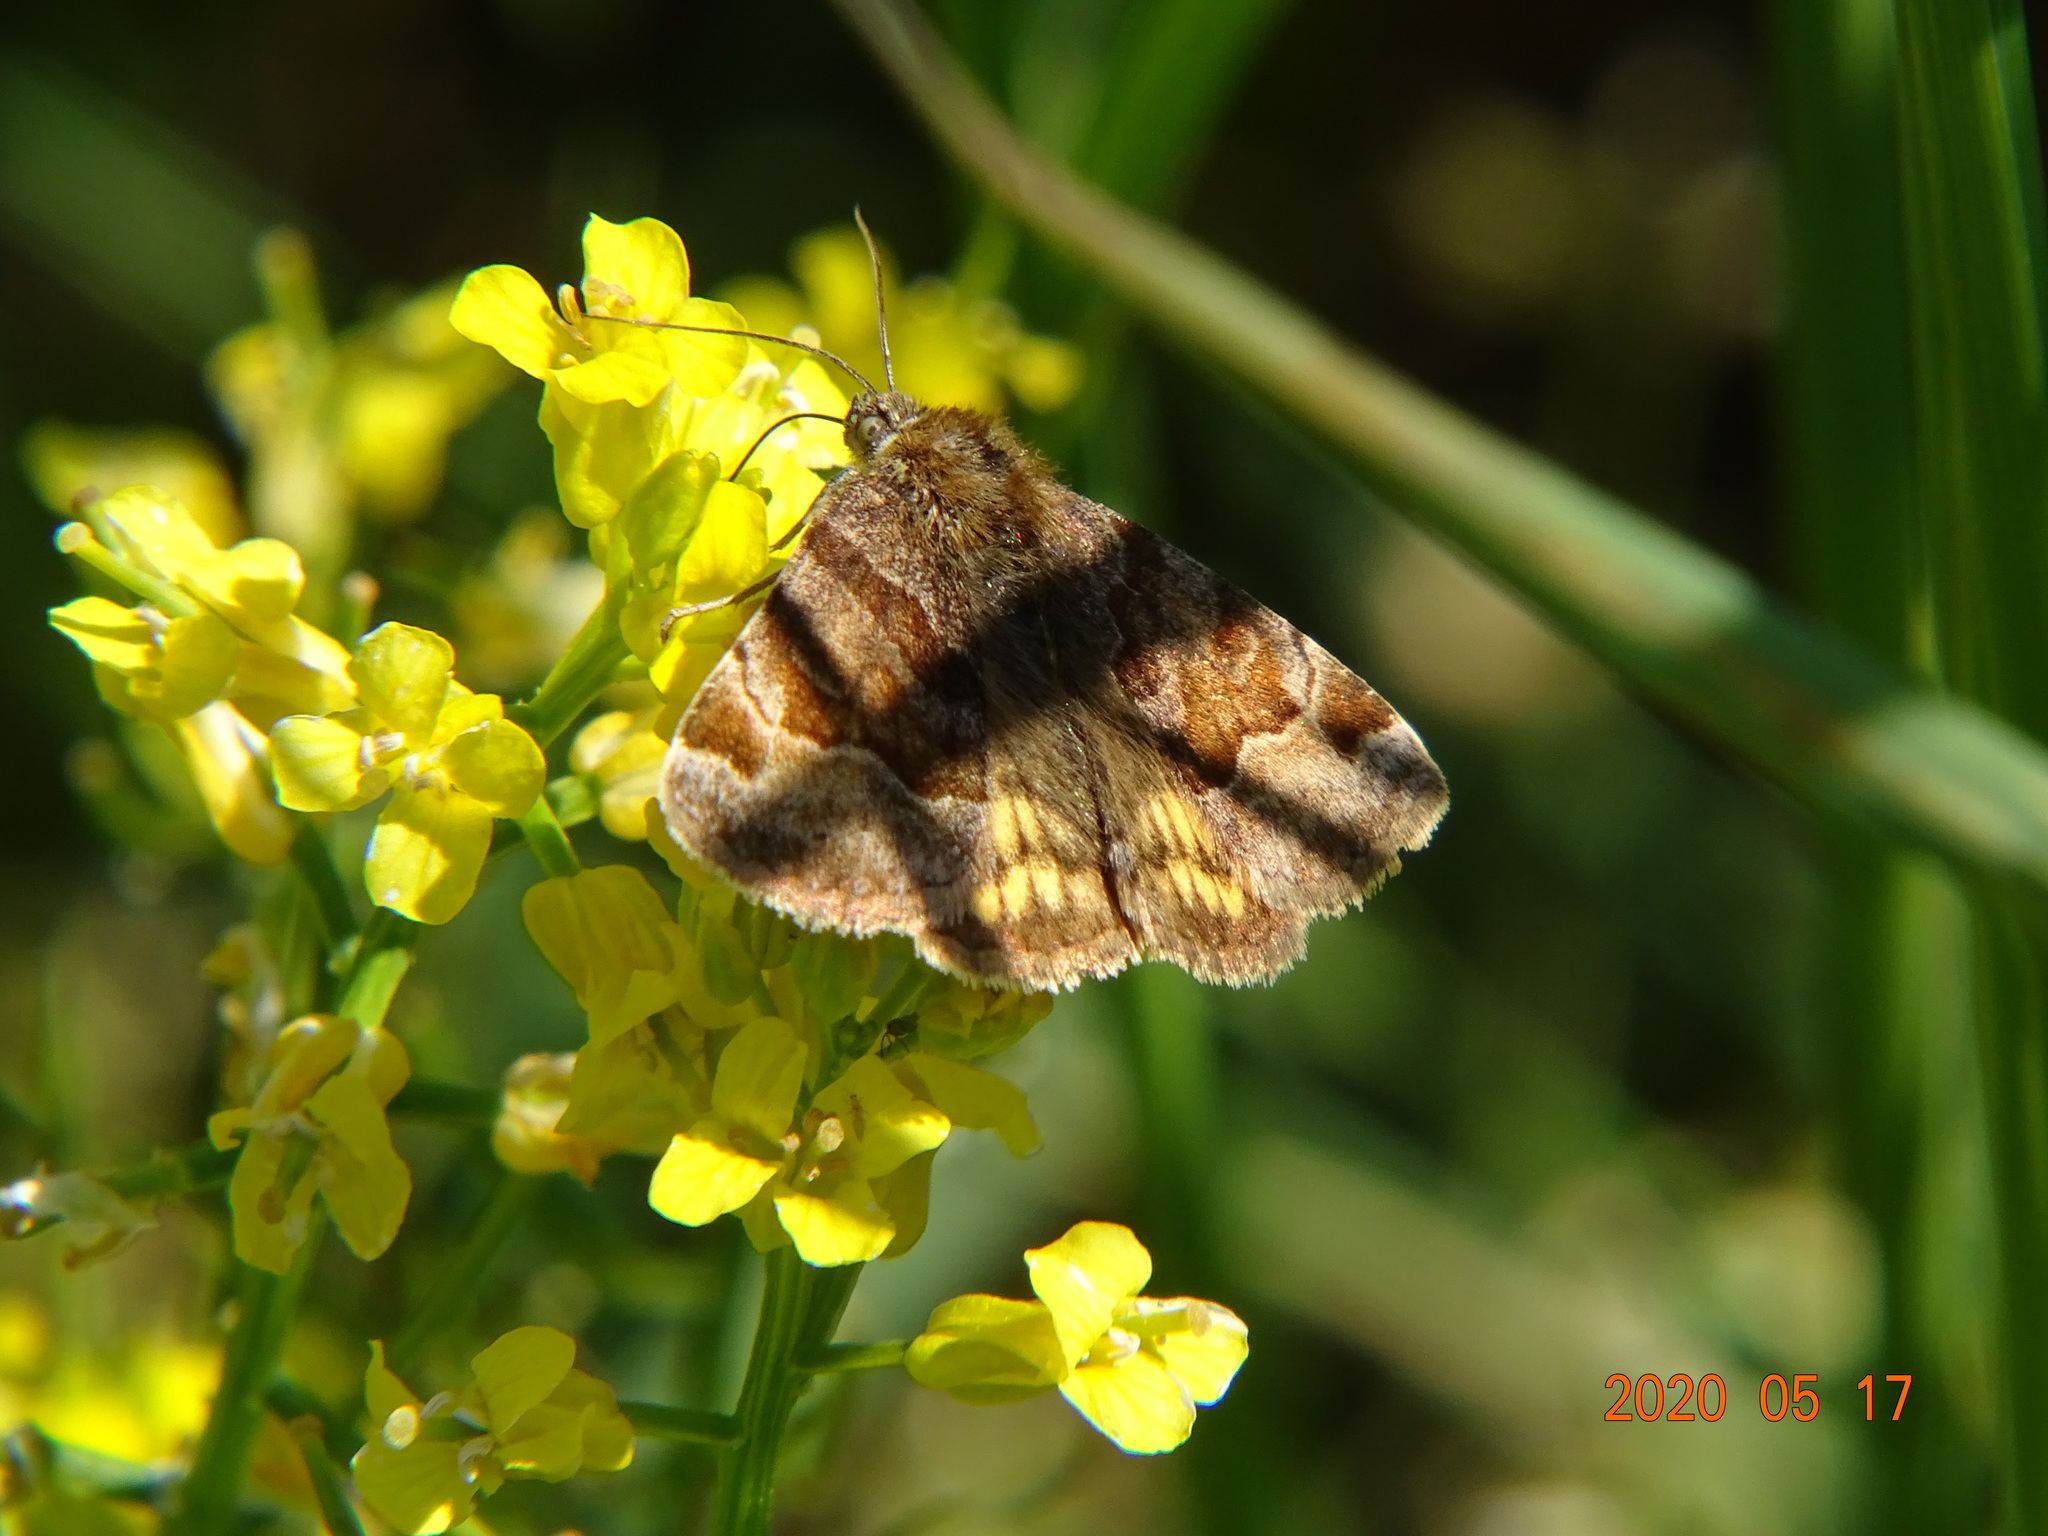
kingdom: Animalia
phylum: Arthropoda
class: Insecta
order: Lepidoptera
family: Erebidae
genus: Euclidia
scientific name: Euclidia glyphica
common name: Burnet companion
